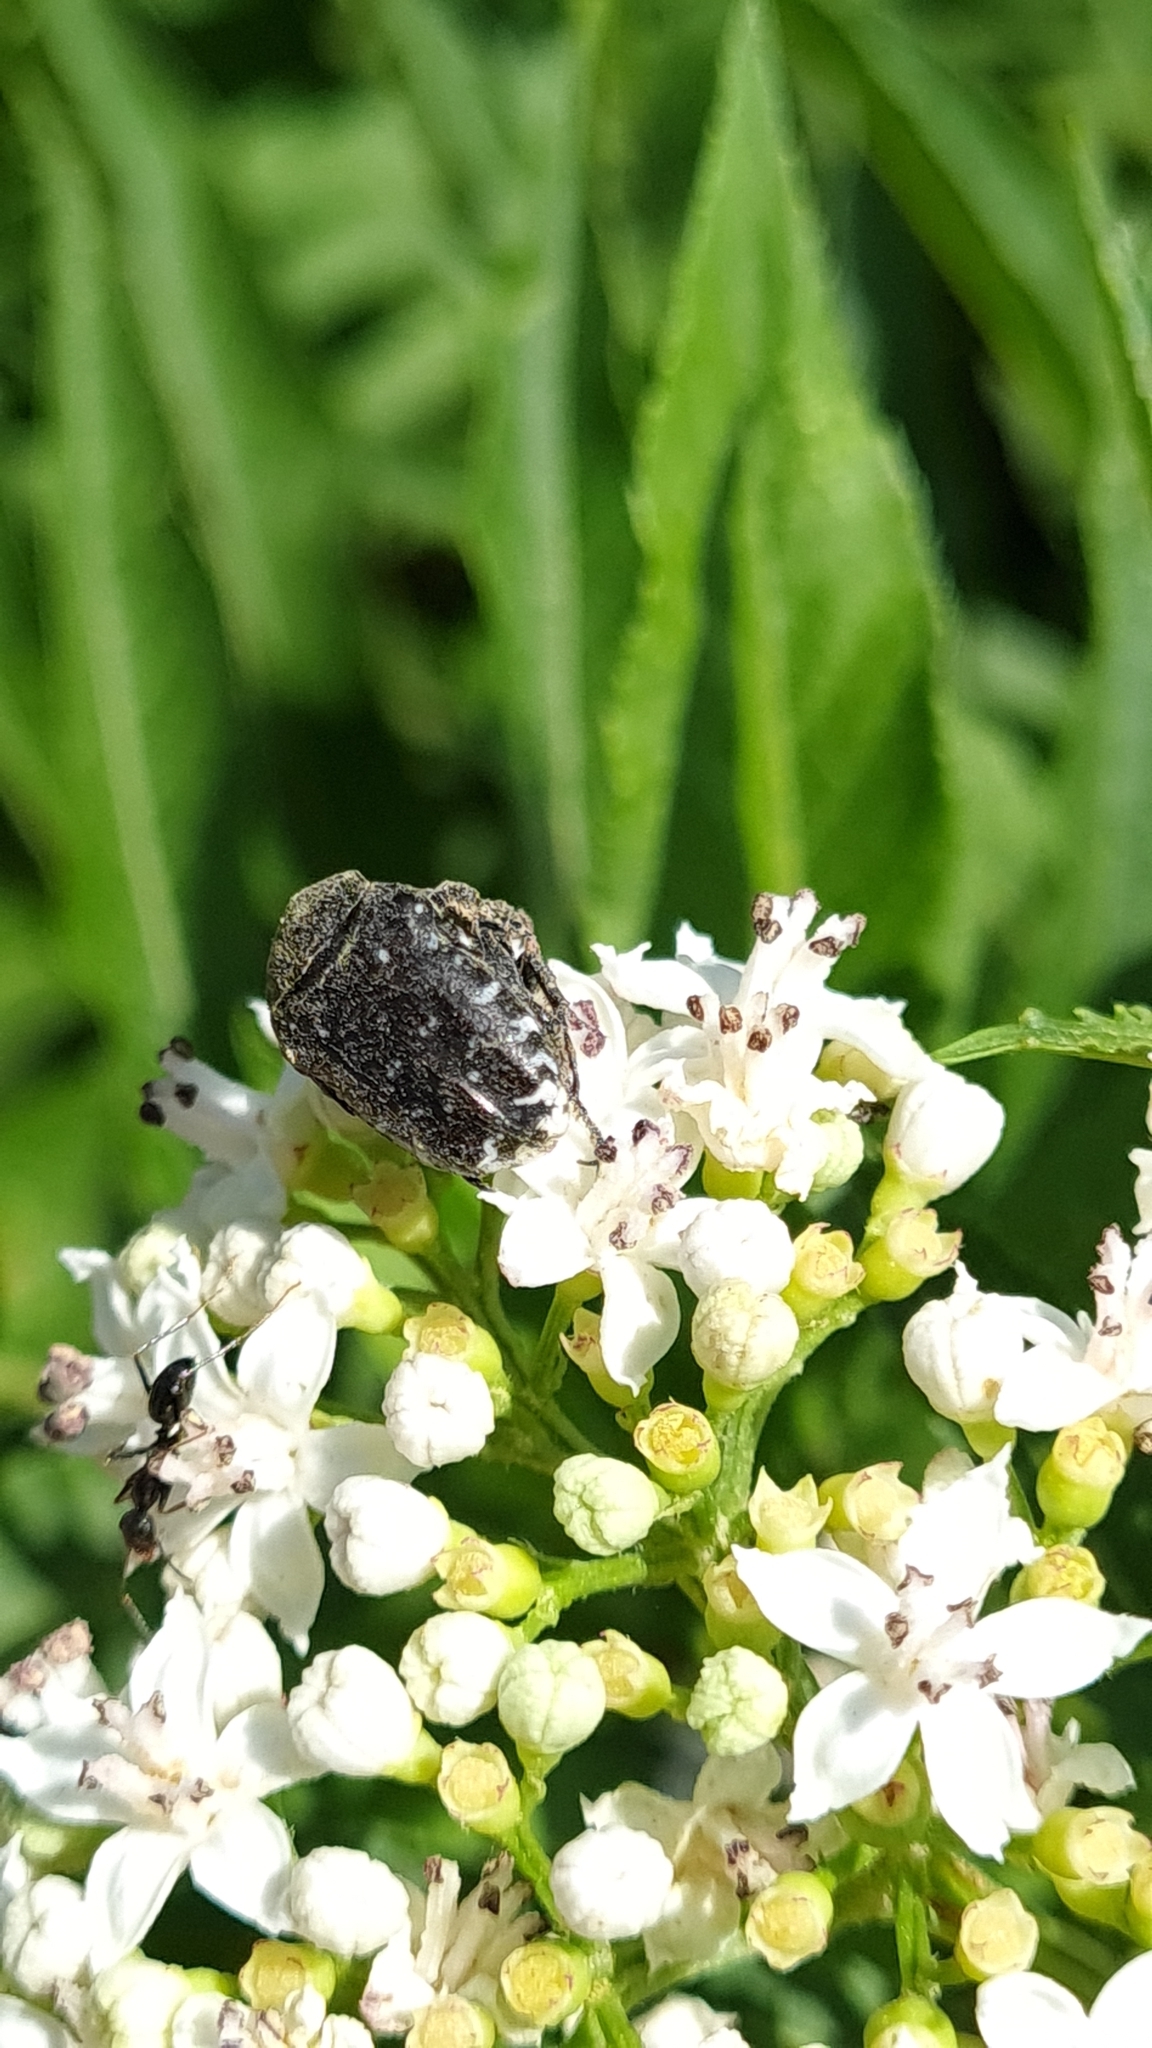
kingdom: Animalia
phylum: Arthropoda
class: Insecta
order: Coleoptera
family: Scarabaeidae
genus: Oxythyrea
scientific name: Oxythyrea funesta
